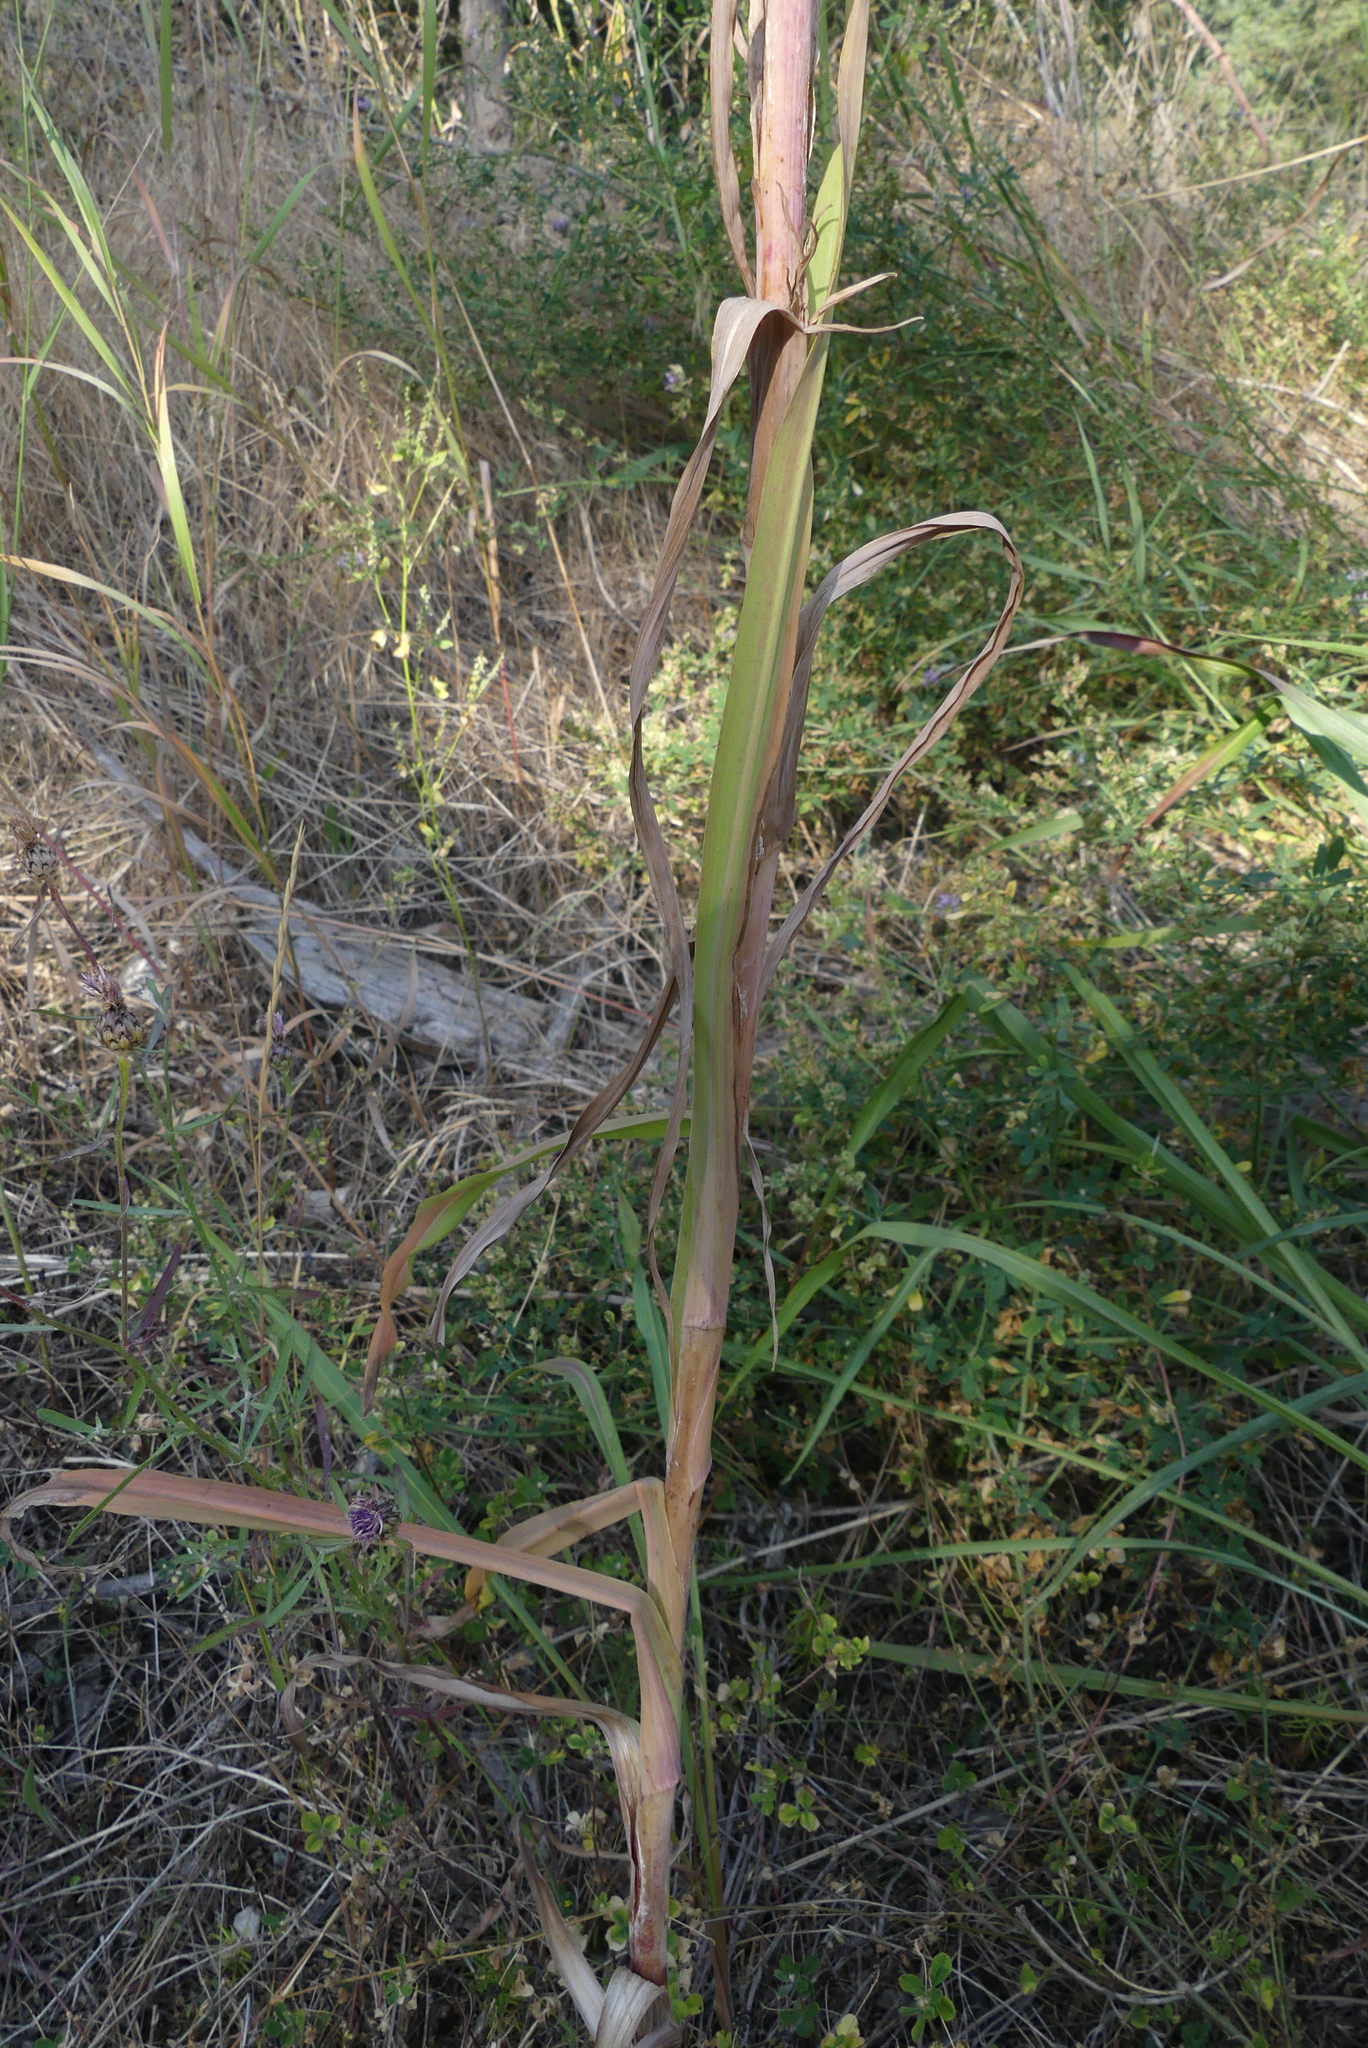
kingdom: Plantae
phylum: Tracheophyta
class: Magnoliopsida
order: Asterales
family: Asteraceae
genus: Tragopogon
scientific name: Tragopogon pratensis
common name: Goat's-beard
